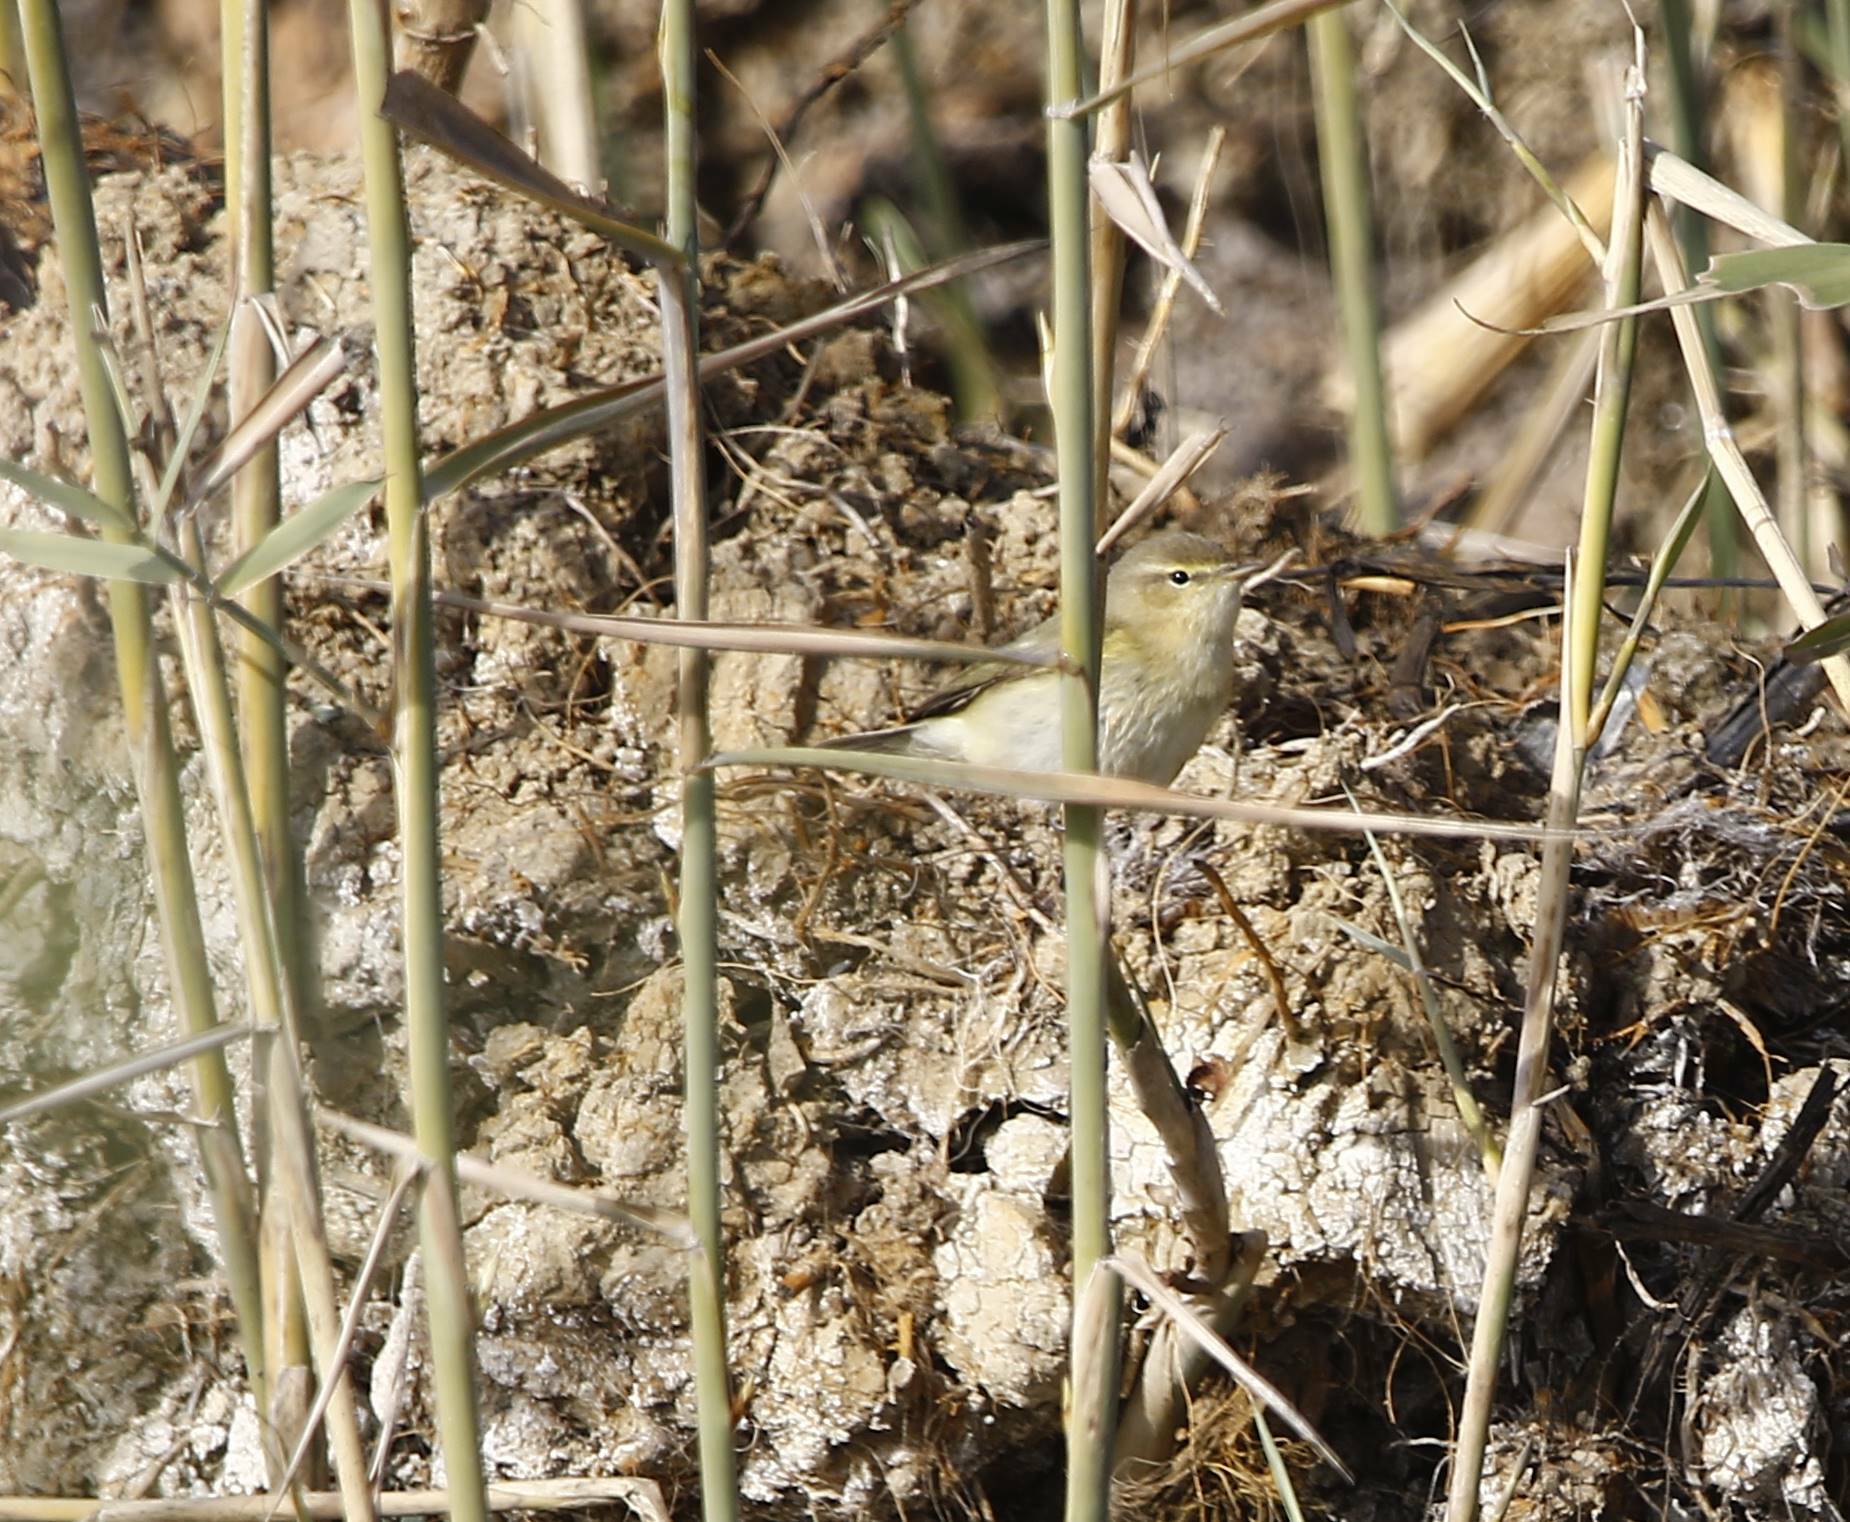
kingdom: Animalia
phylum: Chordata
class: Aves
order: Passeriformes
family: Phylloscopidae
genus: Phylloscopus
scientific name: Phylloscopus trochilus
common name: Willow warbler
